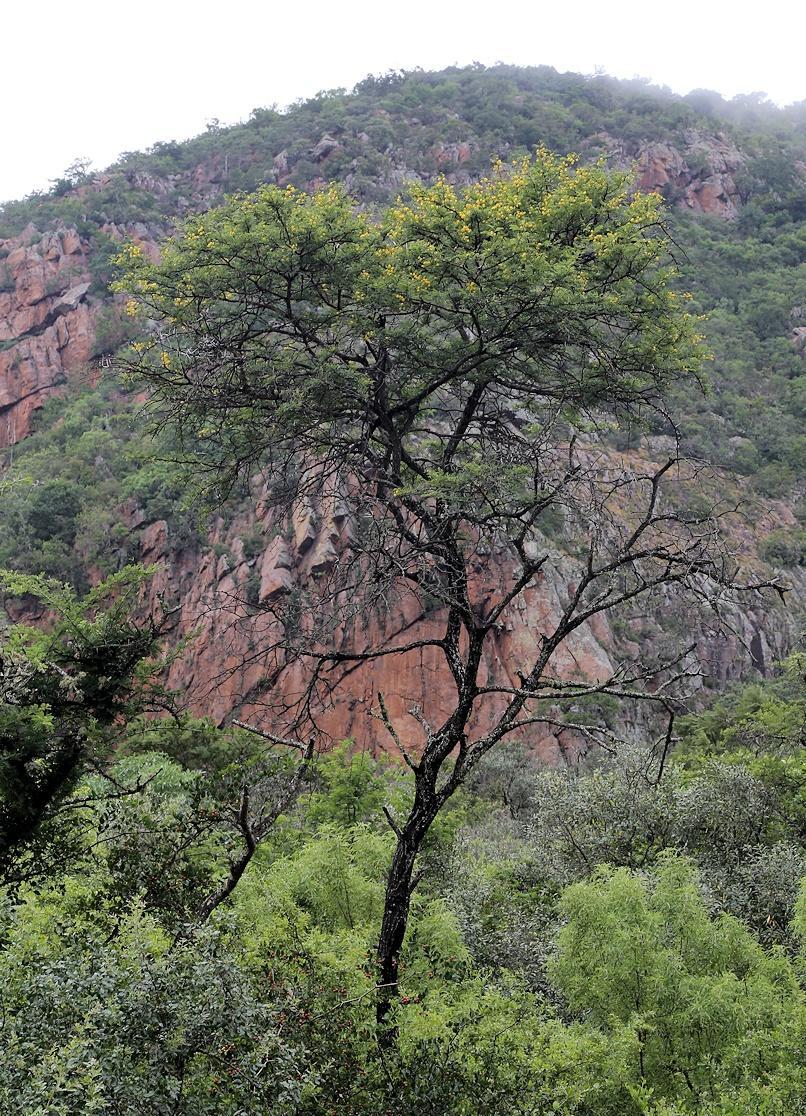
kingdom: Plantae
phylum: Tracheophyta
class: Magnoliopsida
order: Fabales
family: Fabaceae
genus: Vachellia
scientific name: Vachellia karroo
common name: Sweet thorn
